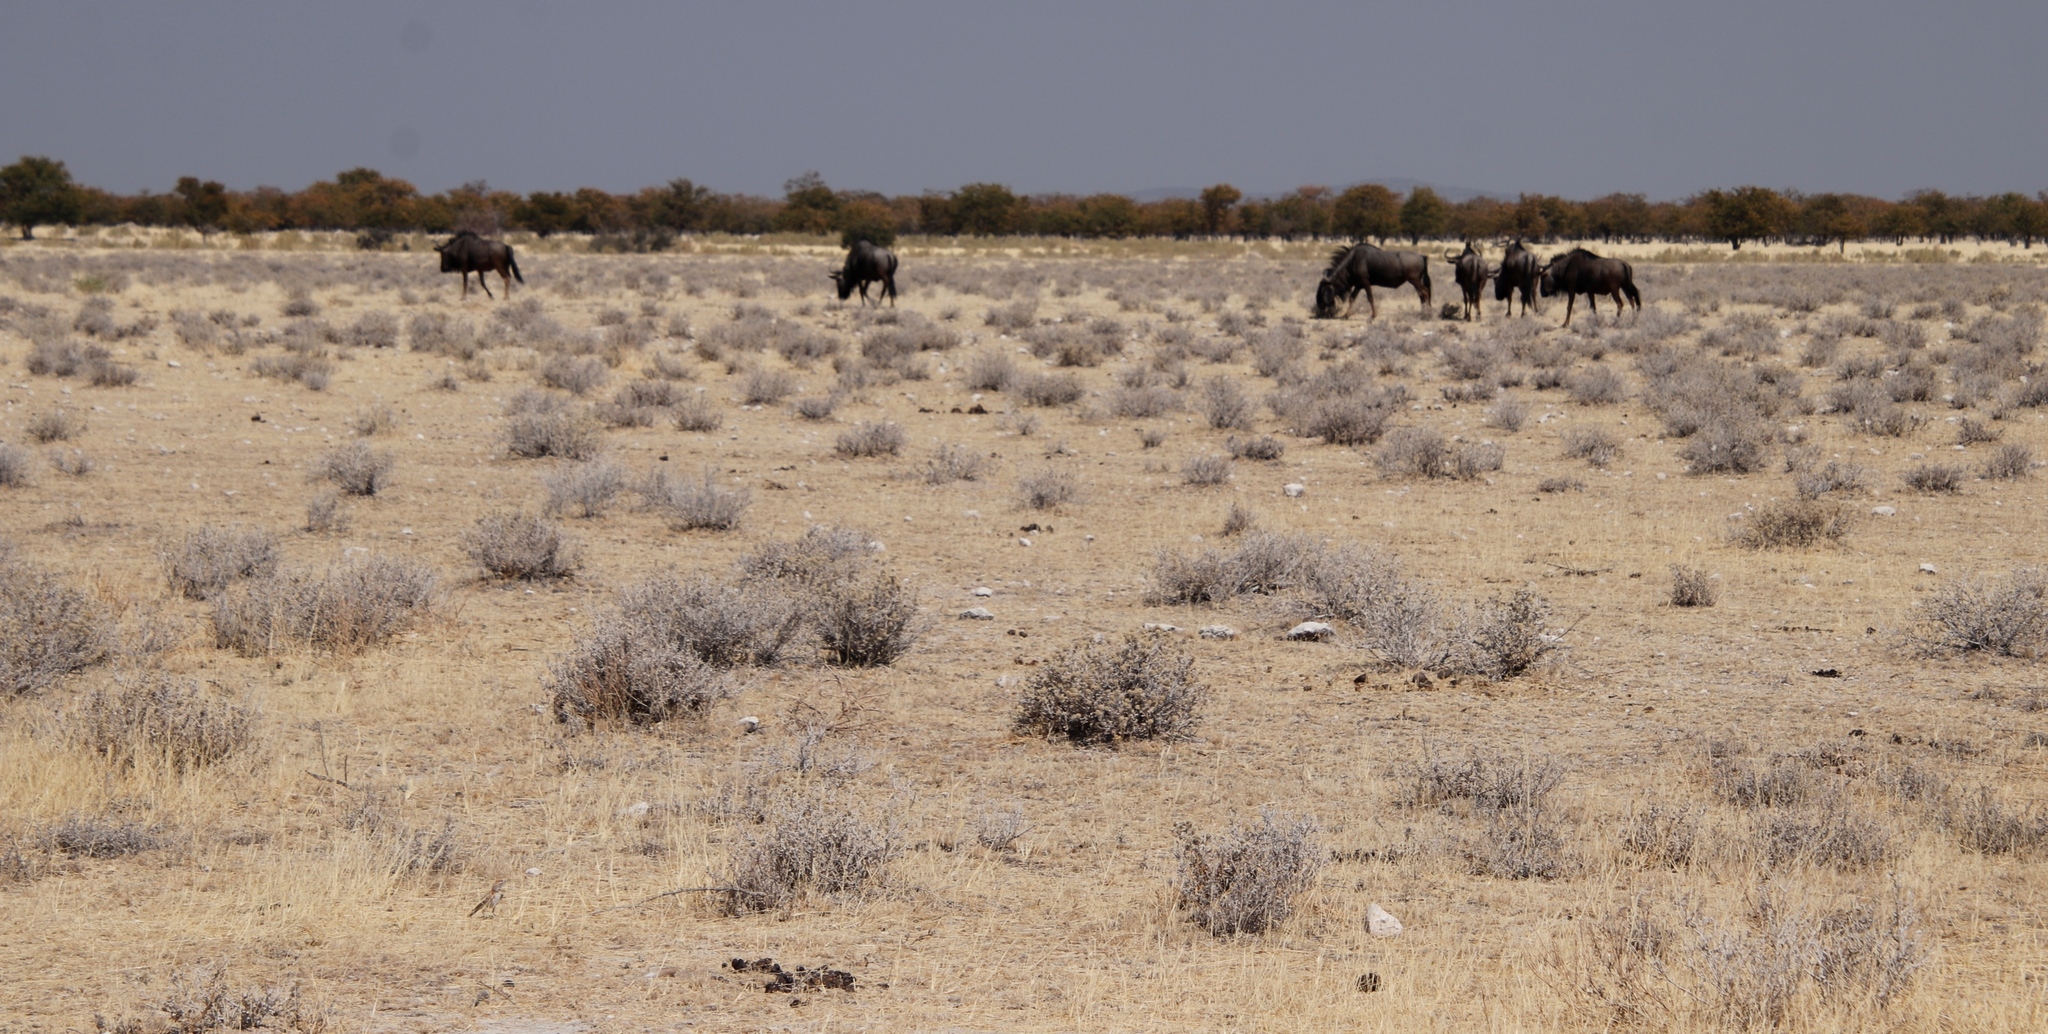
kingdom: Animalia
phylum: Chordata
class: Mammalia
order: Artiodactyla
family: Bovidae
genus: Connochaetes
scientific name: Connochaetes taurinus
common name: Blue wildebeest
